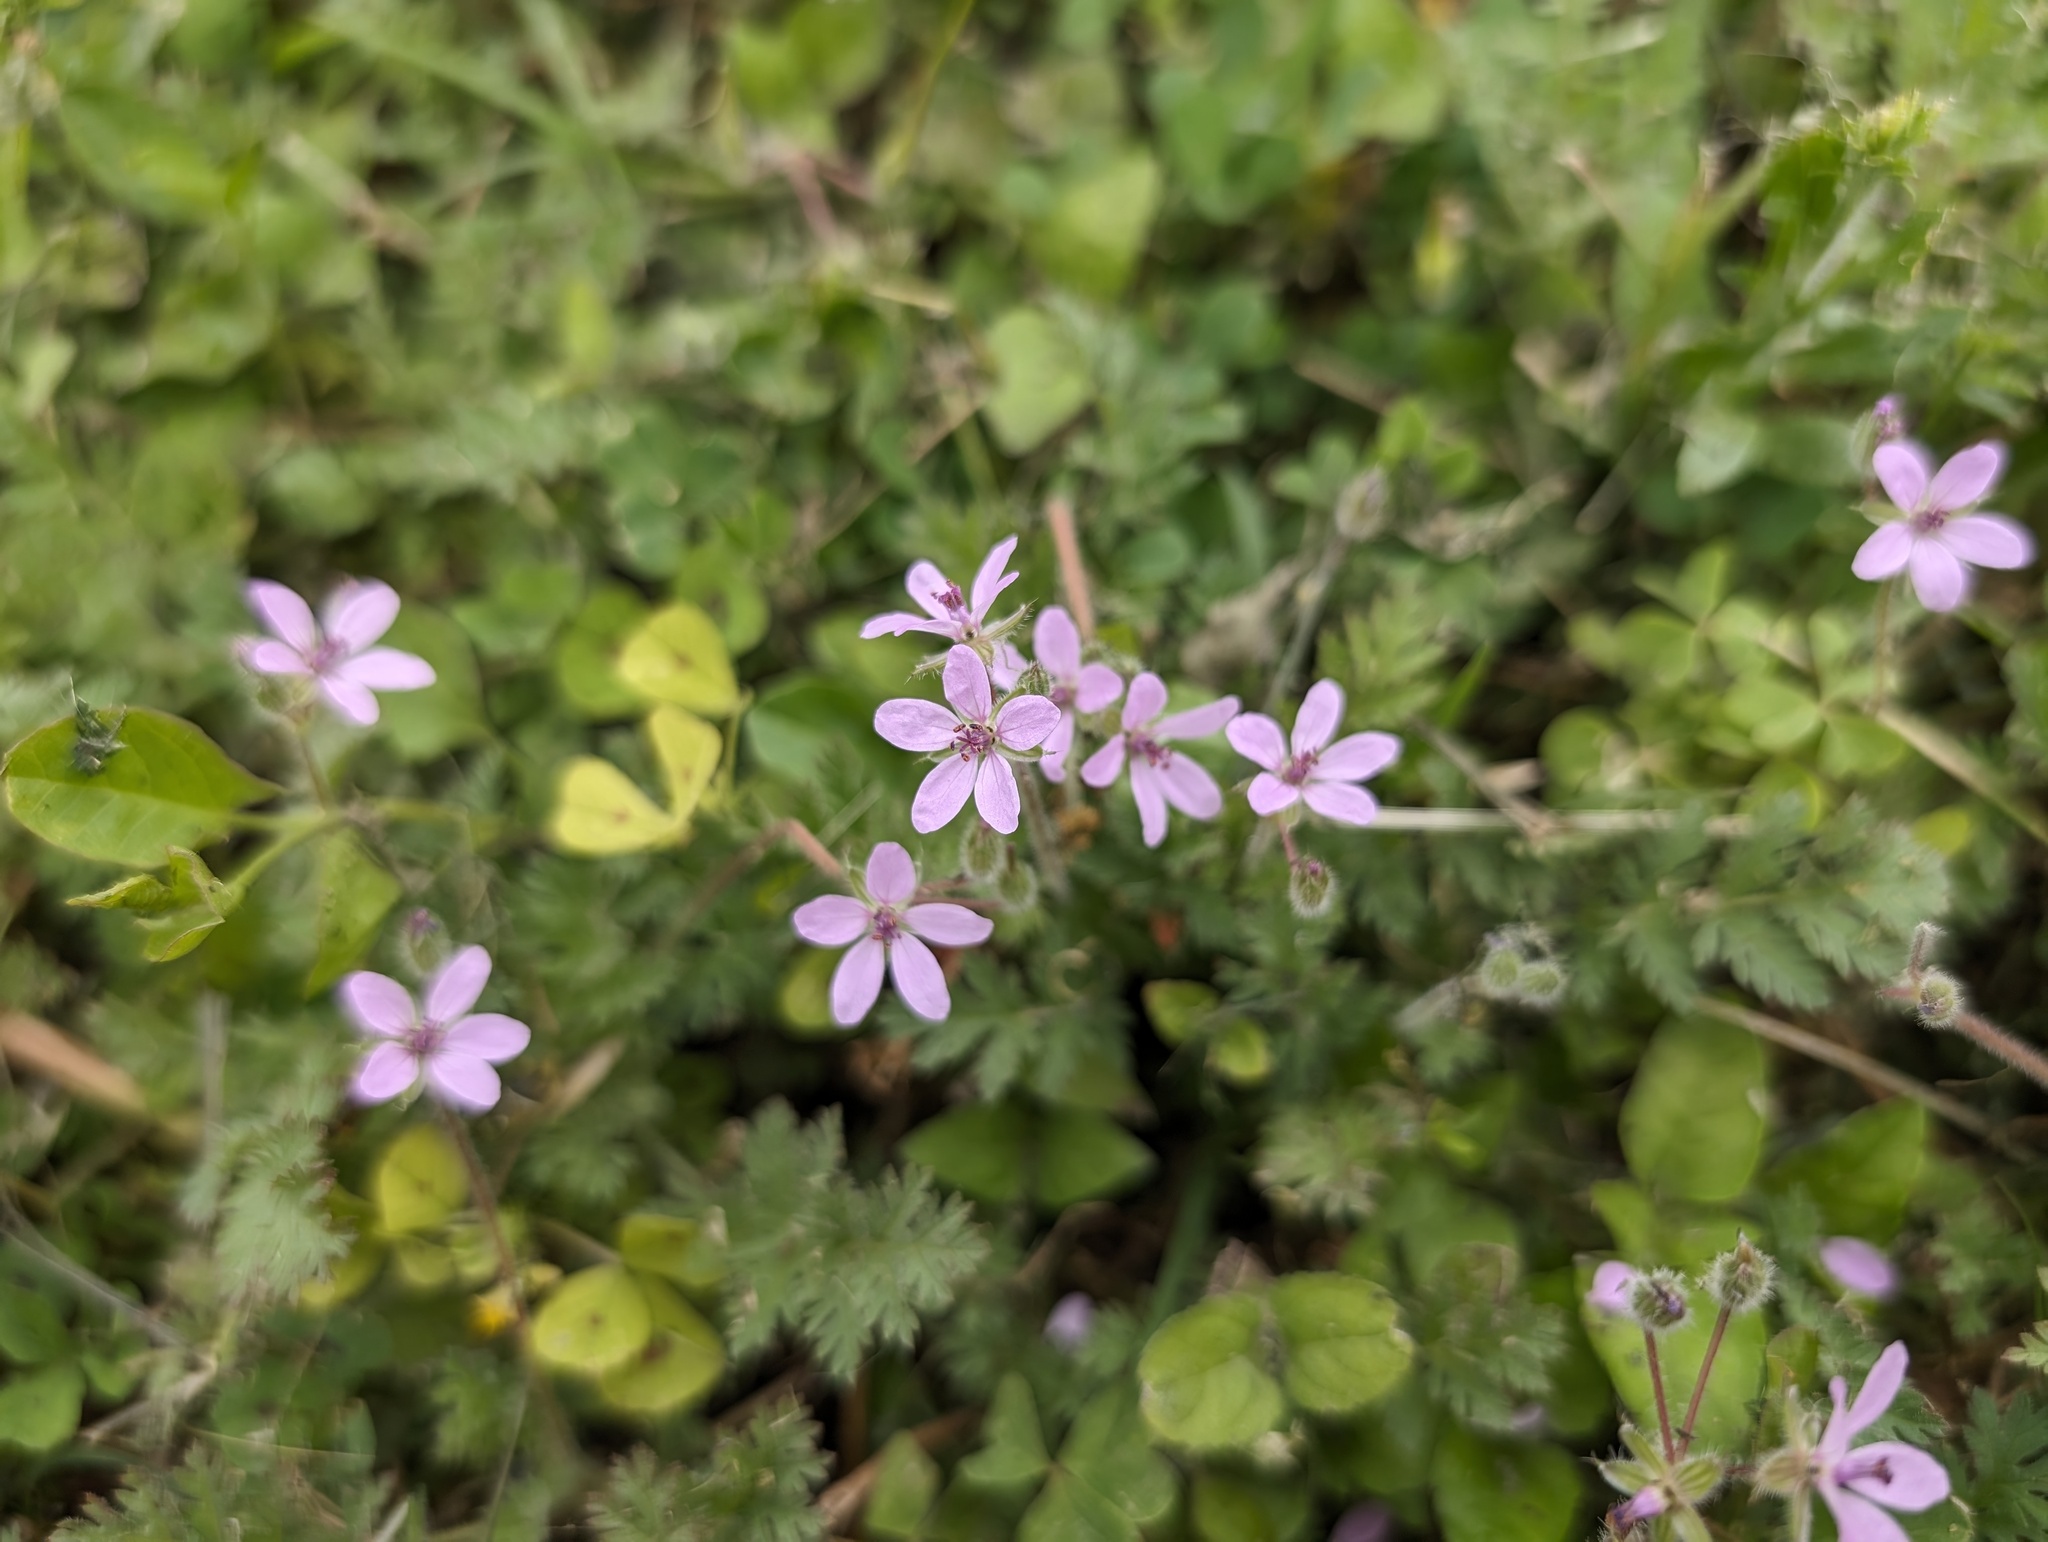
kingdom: Plantae
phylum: Tracheophyta
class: Magnoliopsida
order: Geraniales
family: Geraniaceae
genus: Erodium
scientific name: Erodium cicutarium
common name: Common stork's-bill
